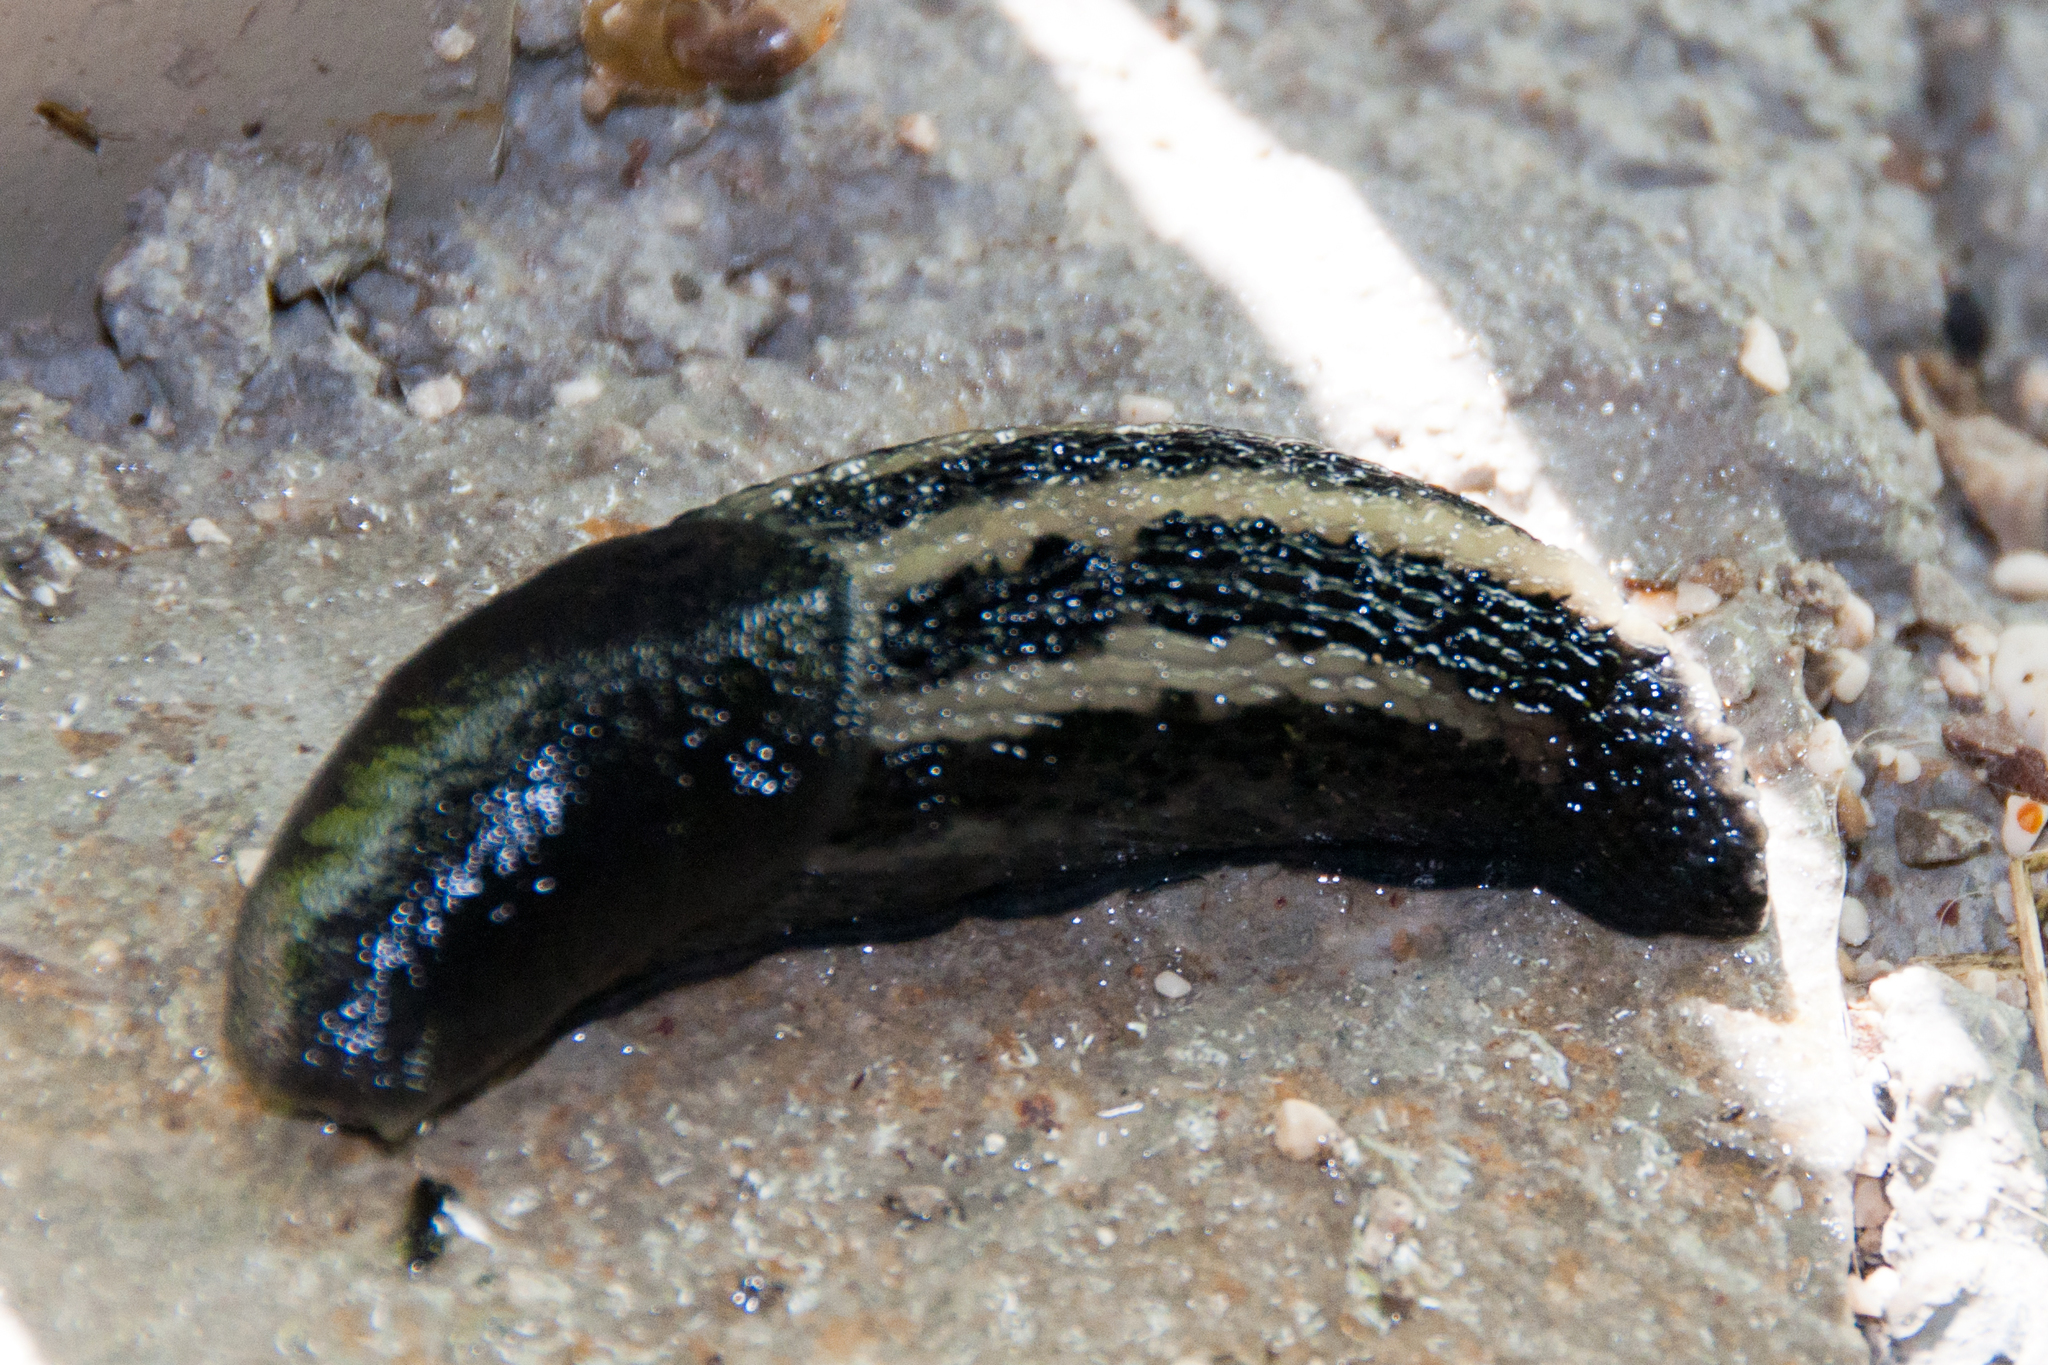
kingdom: Animalia
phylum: Mollusca
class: Gastropoda
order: Stylommatophora
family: Limacidae
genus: Limax
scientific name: Limax cinereoniger
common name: Ash-black slug
